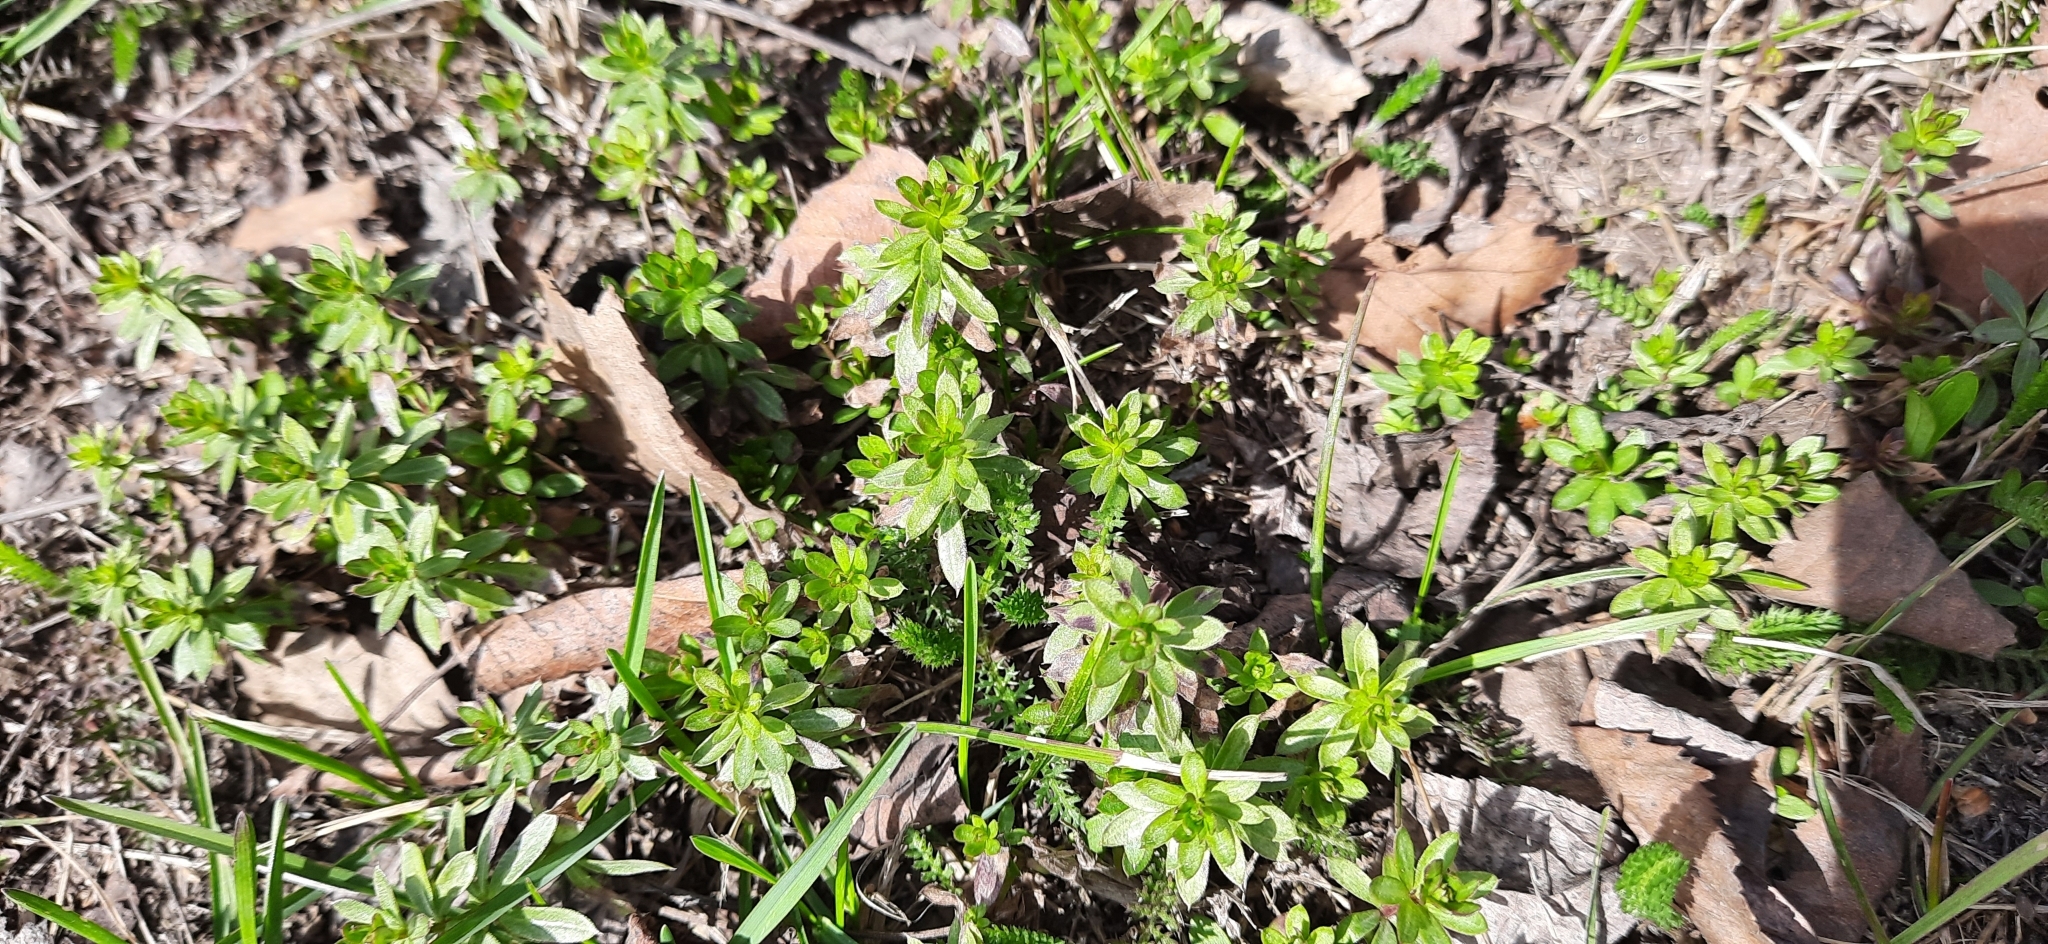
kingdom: Plantae
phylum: Tracheophyta
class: Magnoliopsida
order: Gentianales
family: Rubiaceae
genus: Galium
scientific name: Galium mollugo
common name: Hedge bedstraw
